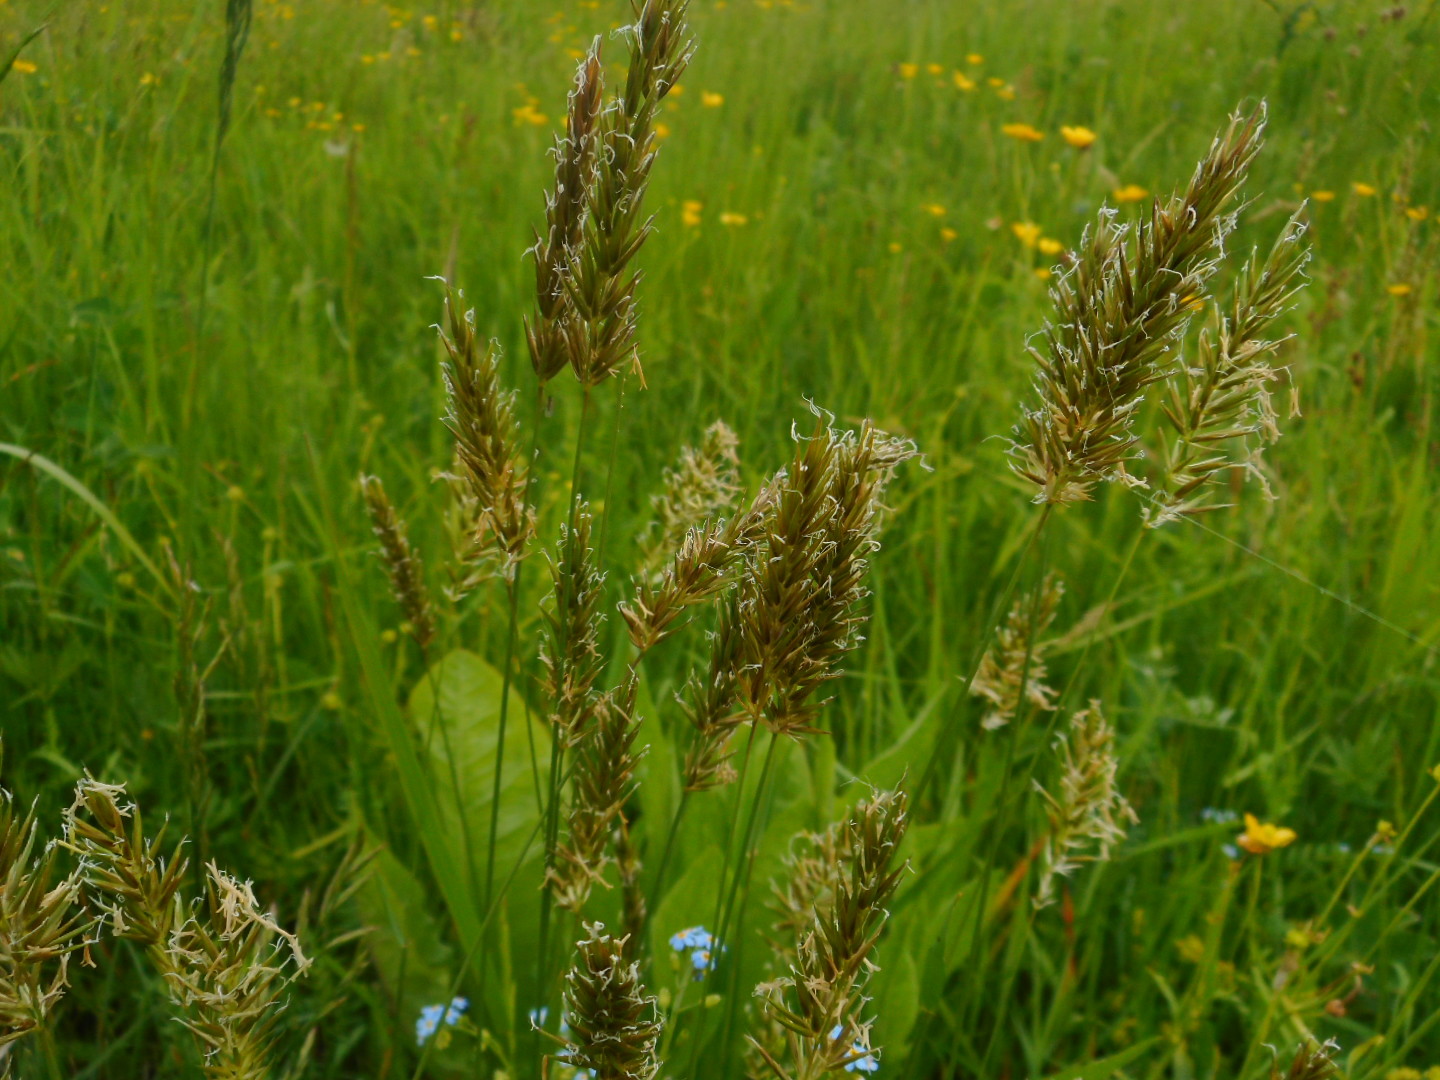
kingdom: Plantae
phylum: Tracheophyta
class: Liliopsida
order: Poales
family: Poaceae
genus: Anthoxanthum
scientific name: Anthoxanthum odoratum
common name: Sweet vernalgrass
